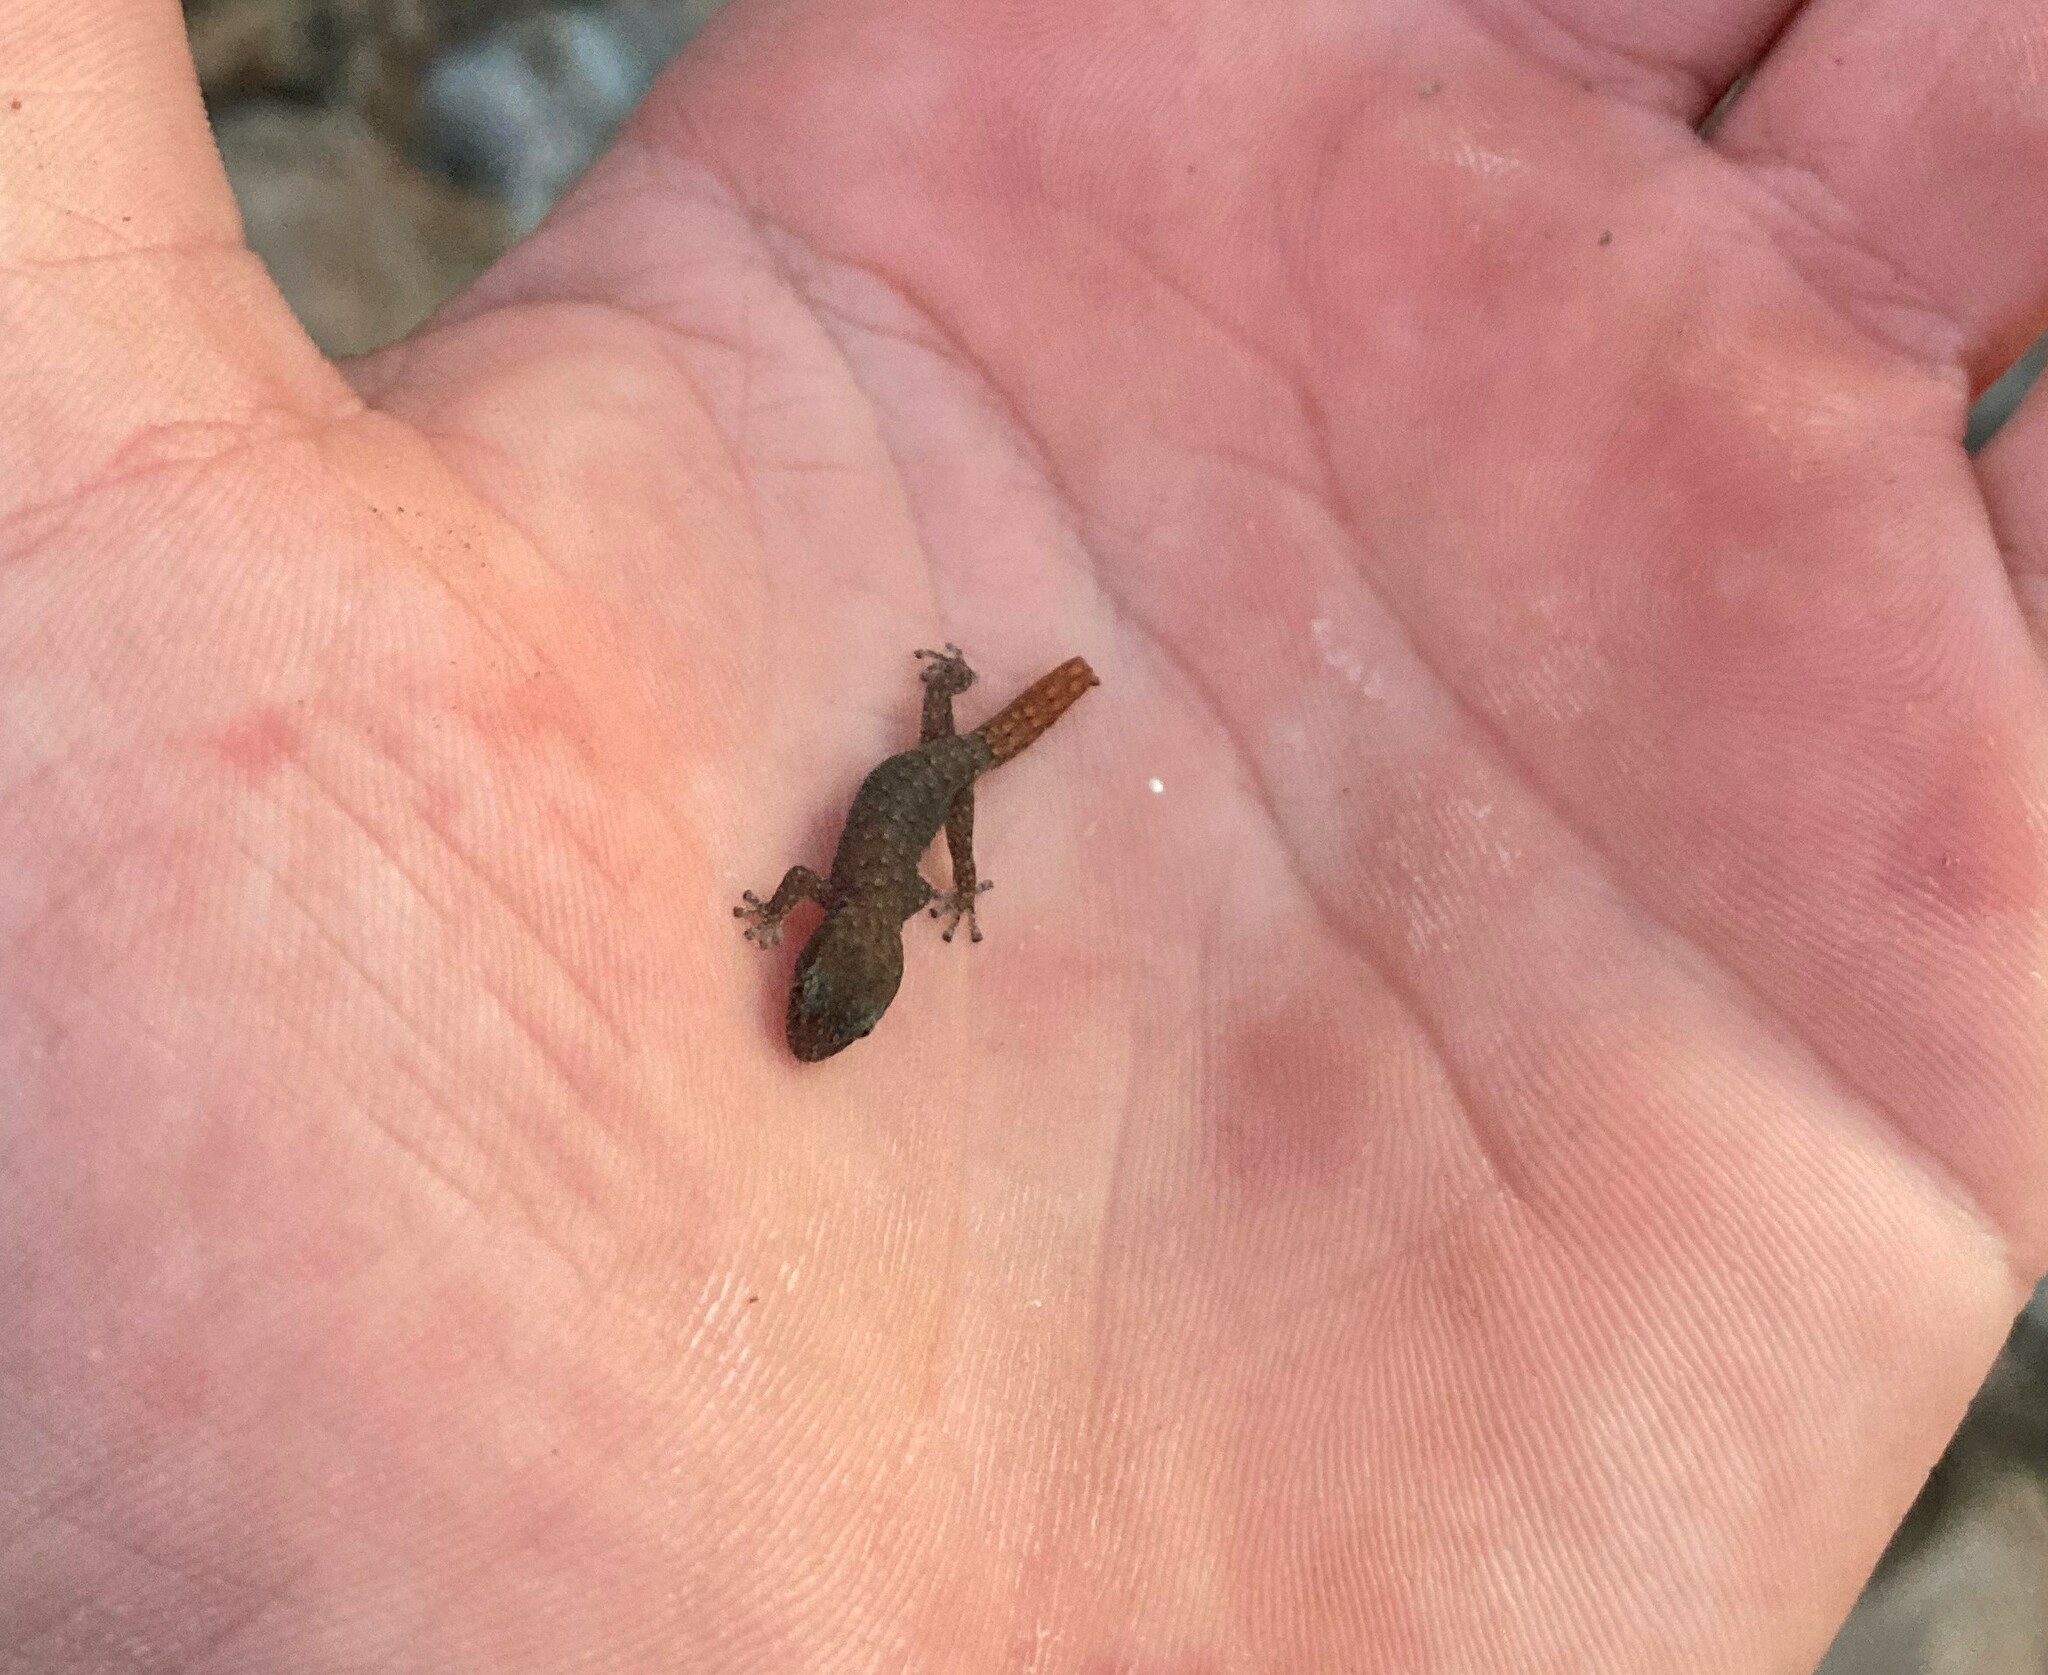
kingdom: Animalia
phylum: Chordata
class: Squamata
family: Gekkonidae
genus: Goggia
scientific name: Goggia hewitti
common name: Hewitt’s dwarf leaf-toed gecko
